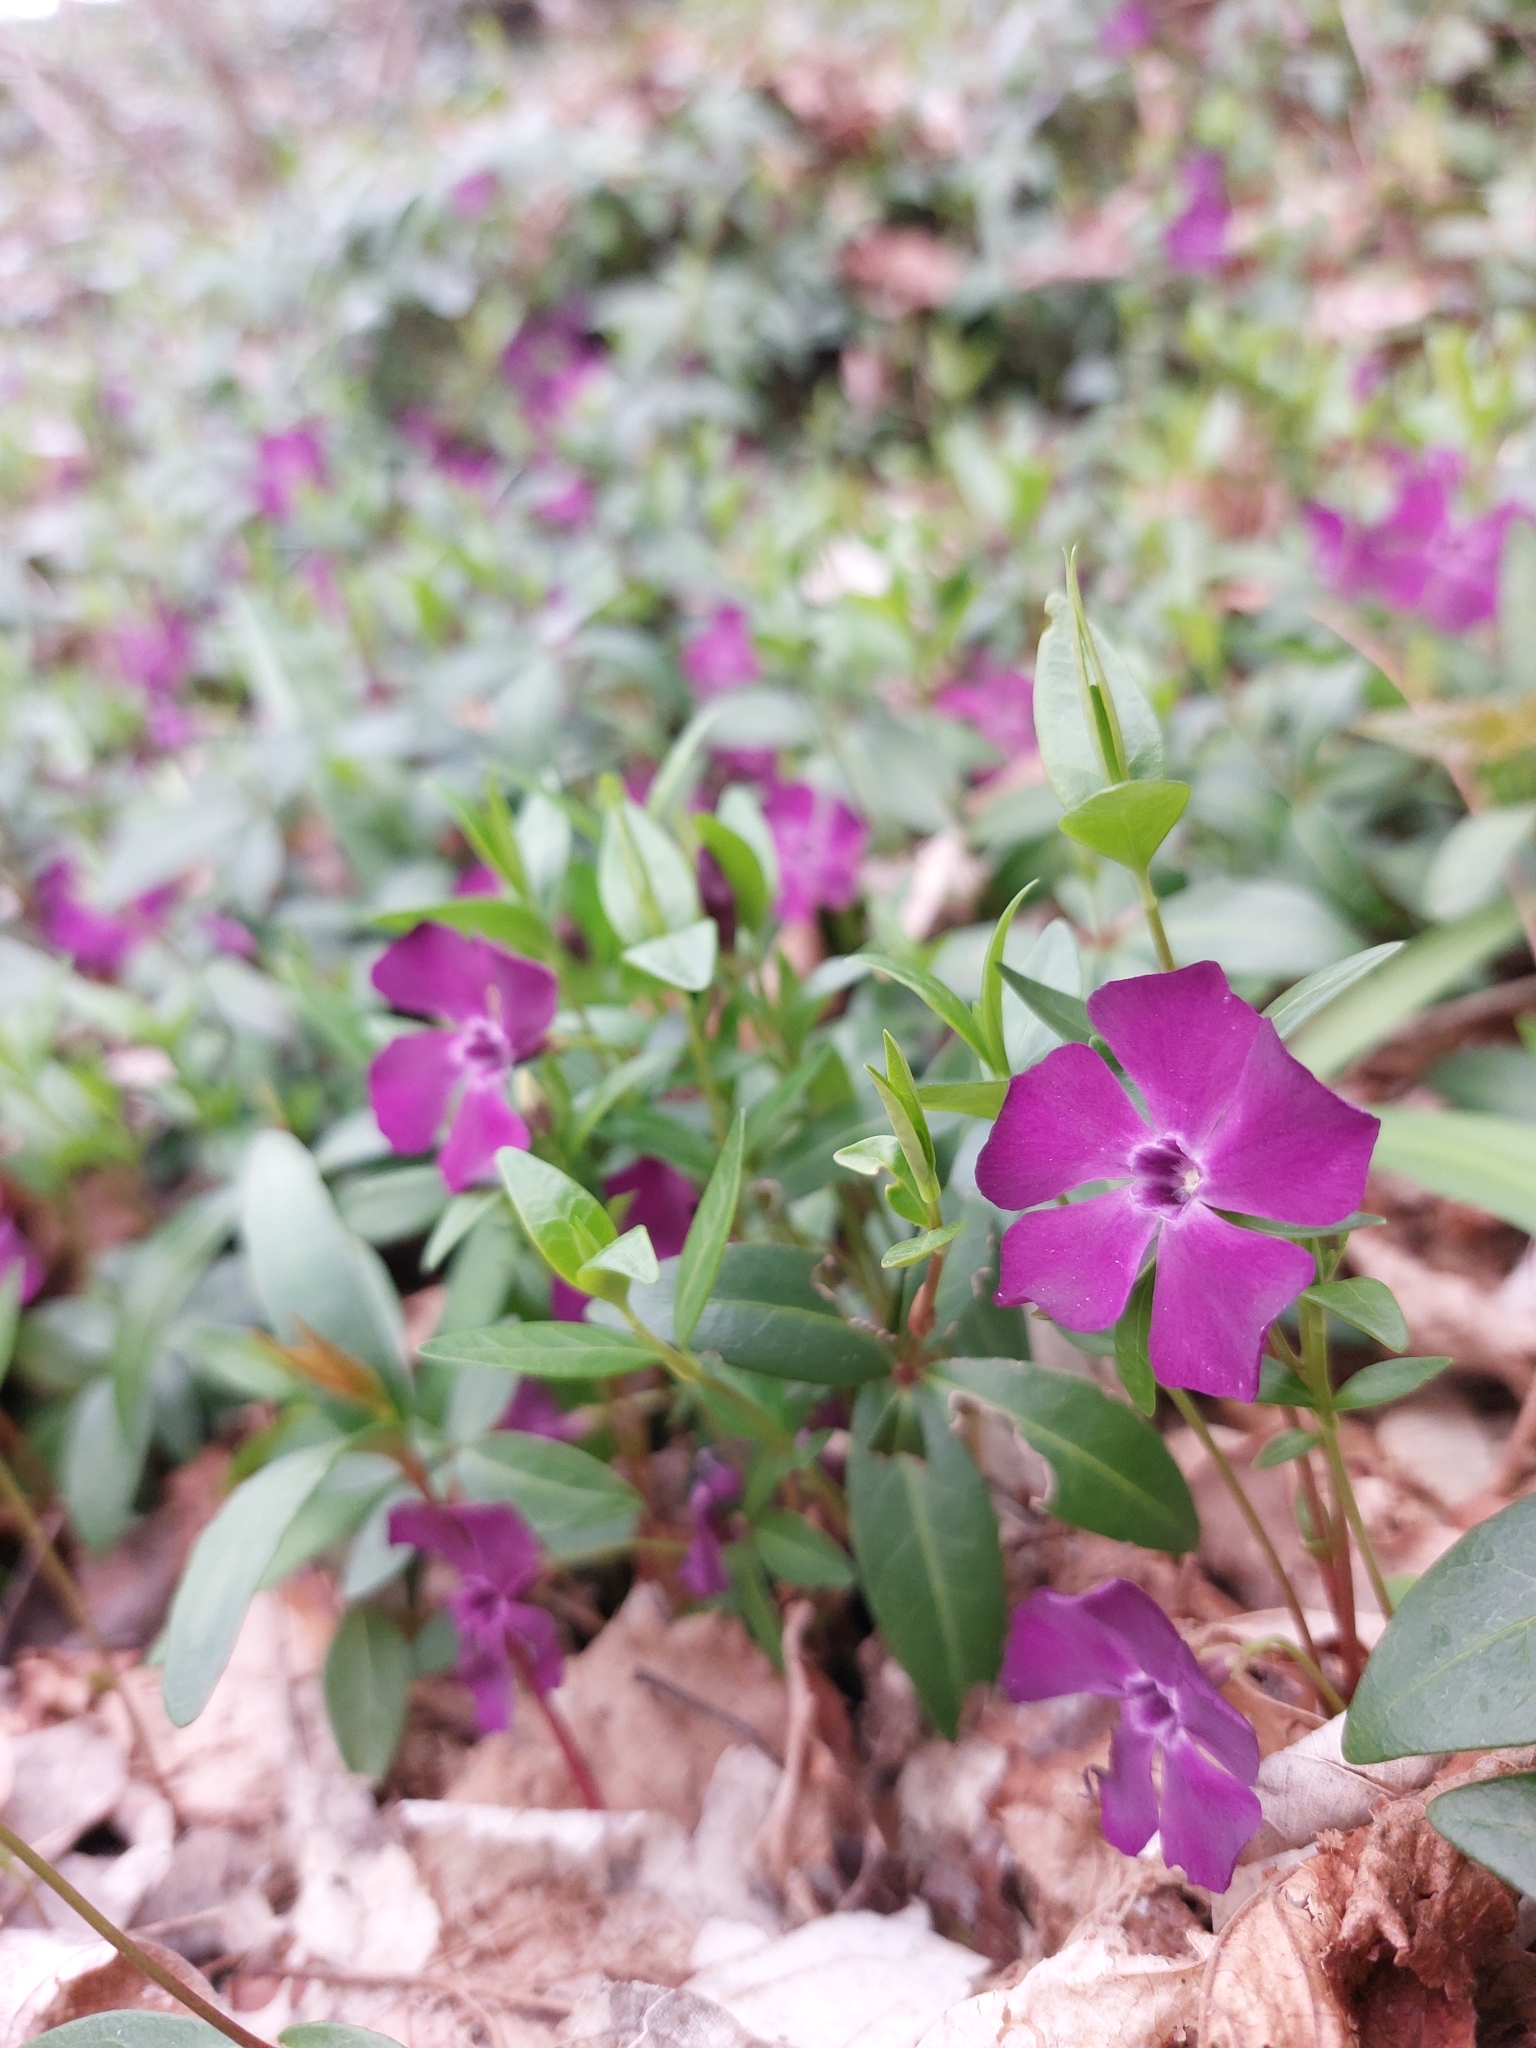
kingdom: Plantae
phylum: Tracheophyta
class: Magnoliopsida
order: Gentianales
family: Apocynaceae
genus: Vinca
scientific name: Vinca minor
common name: Lesser periwinkle
